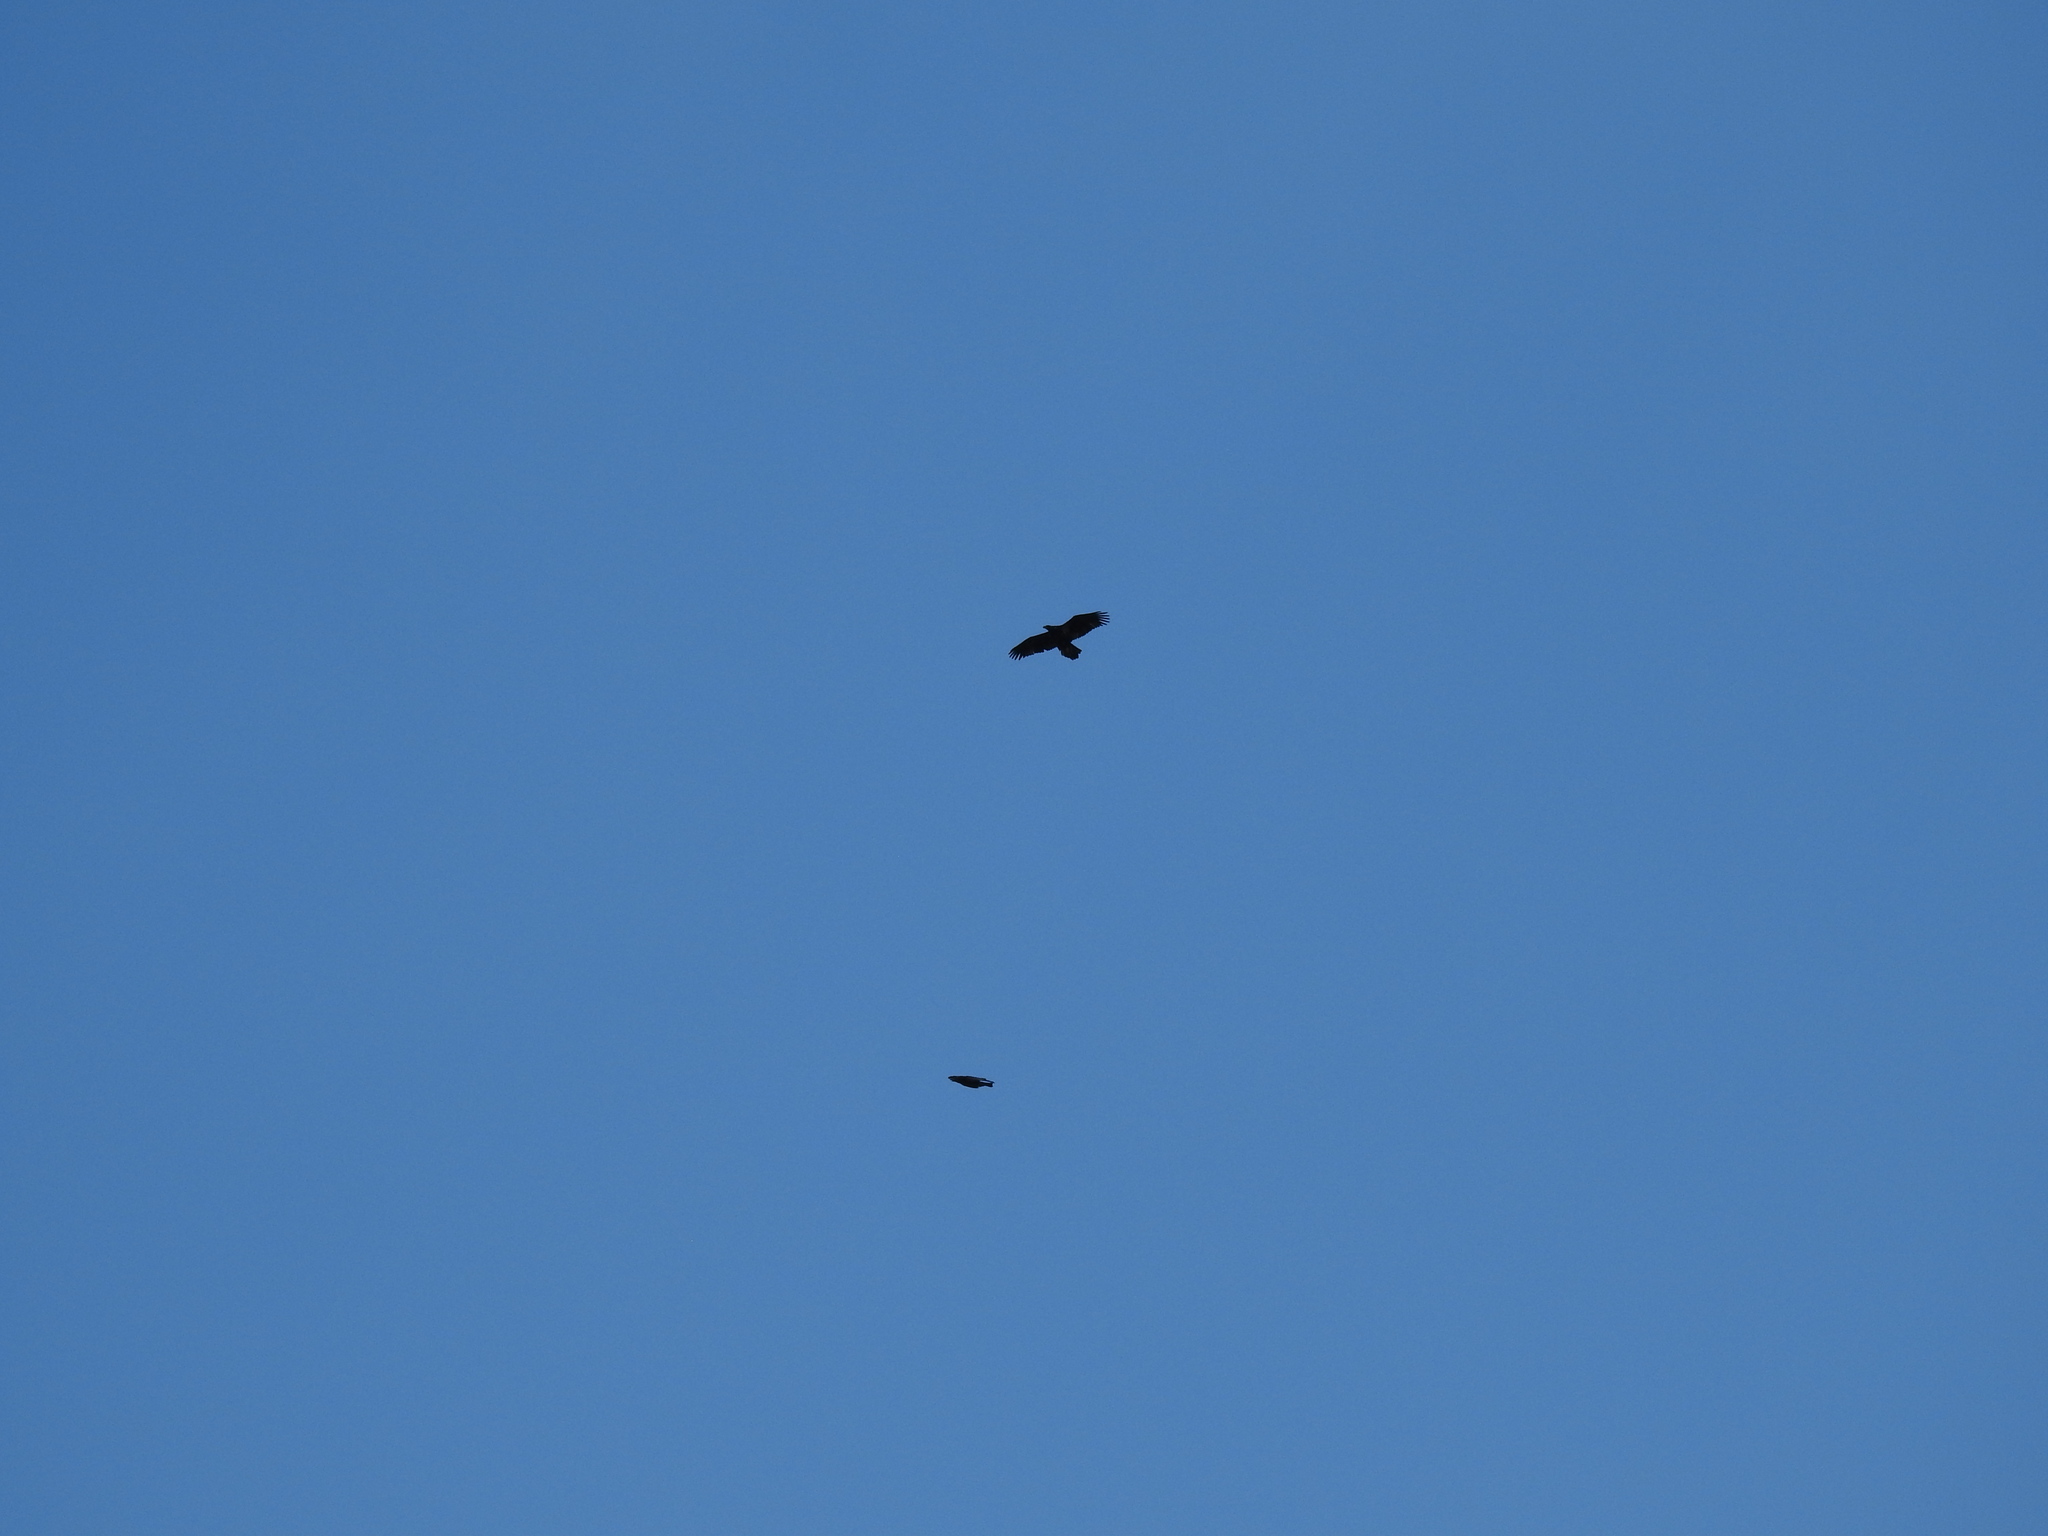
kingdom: Animalia
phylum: Chordata
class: Aves
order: Accipitriformes
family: Accipitridae
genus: Haliaeetus
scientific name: Haliaeetus leucocephalus
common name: Bald eagle
